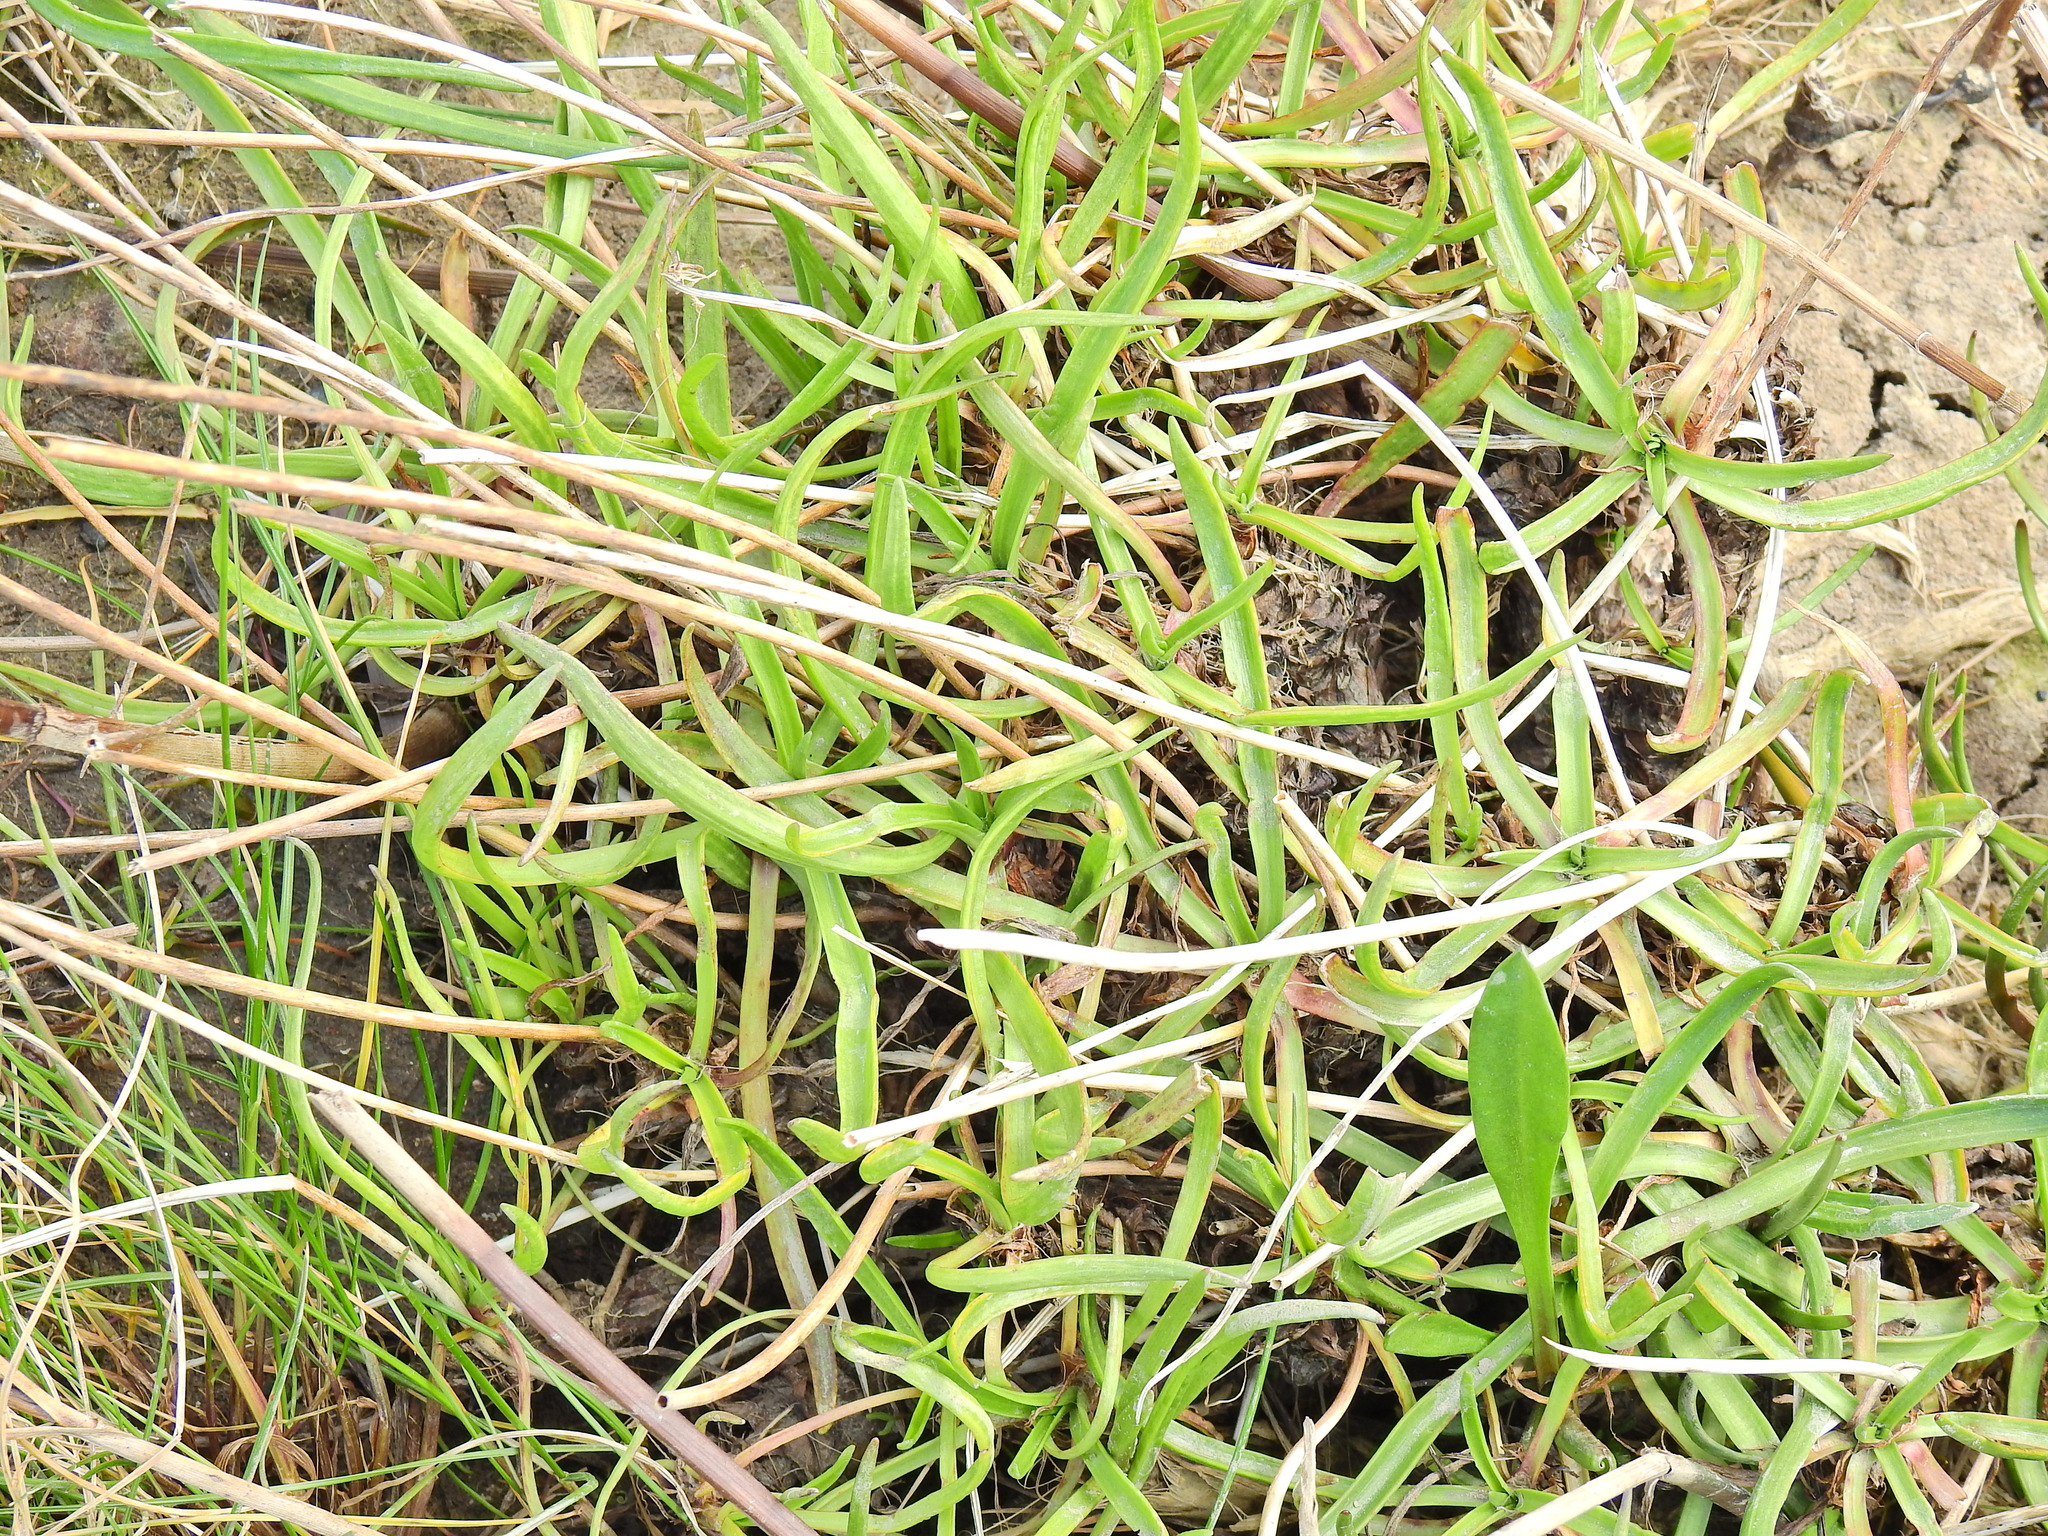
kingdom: Plantae
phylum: Tracheophyta
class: Magnoliopsida
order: Lamiales
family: Plantaginaceae
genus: Plantago
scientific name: Plantago maritima
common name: Sea plantain
